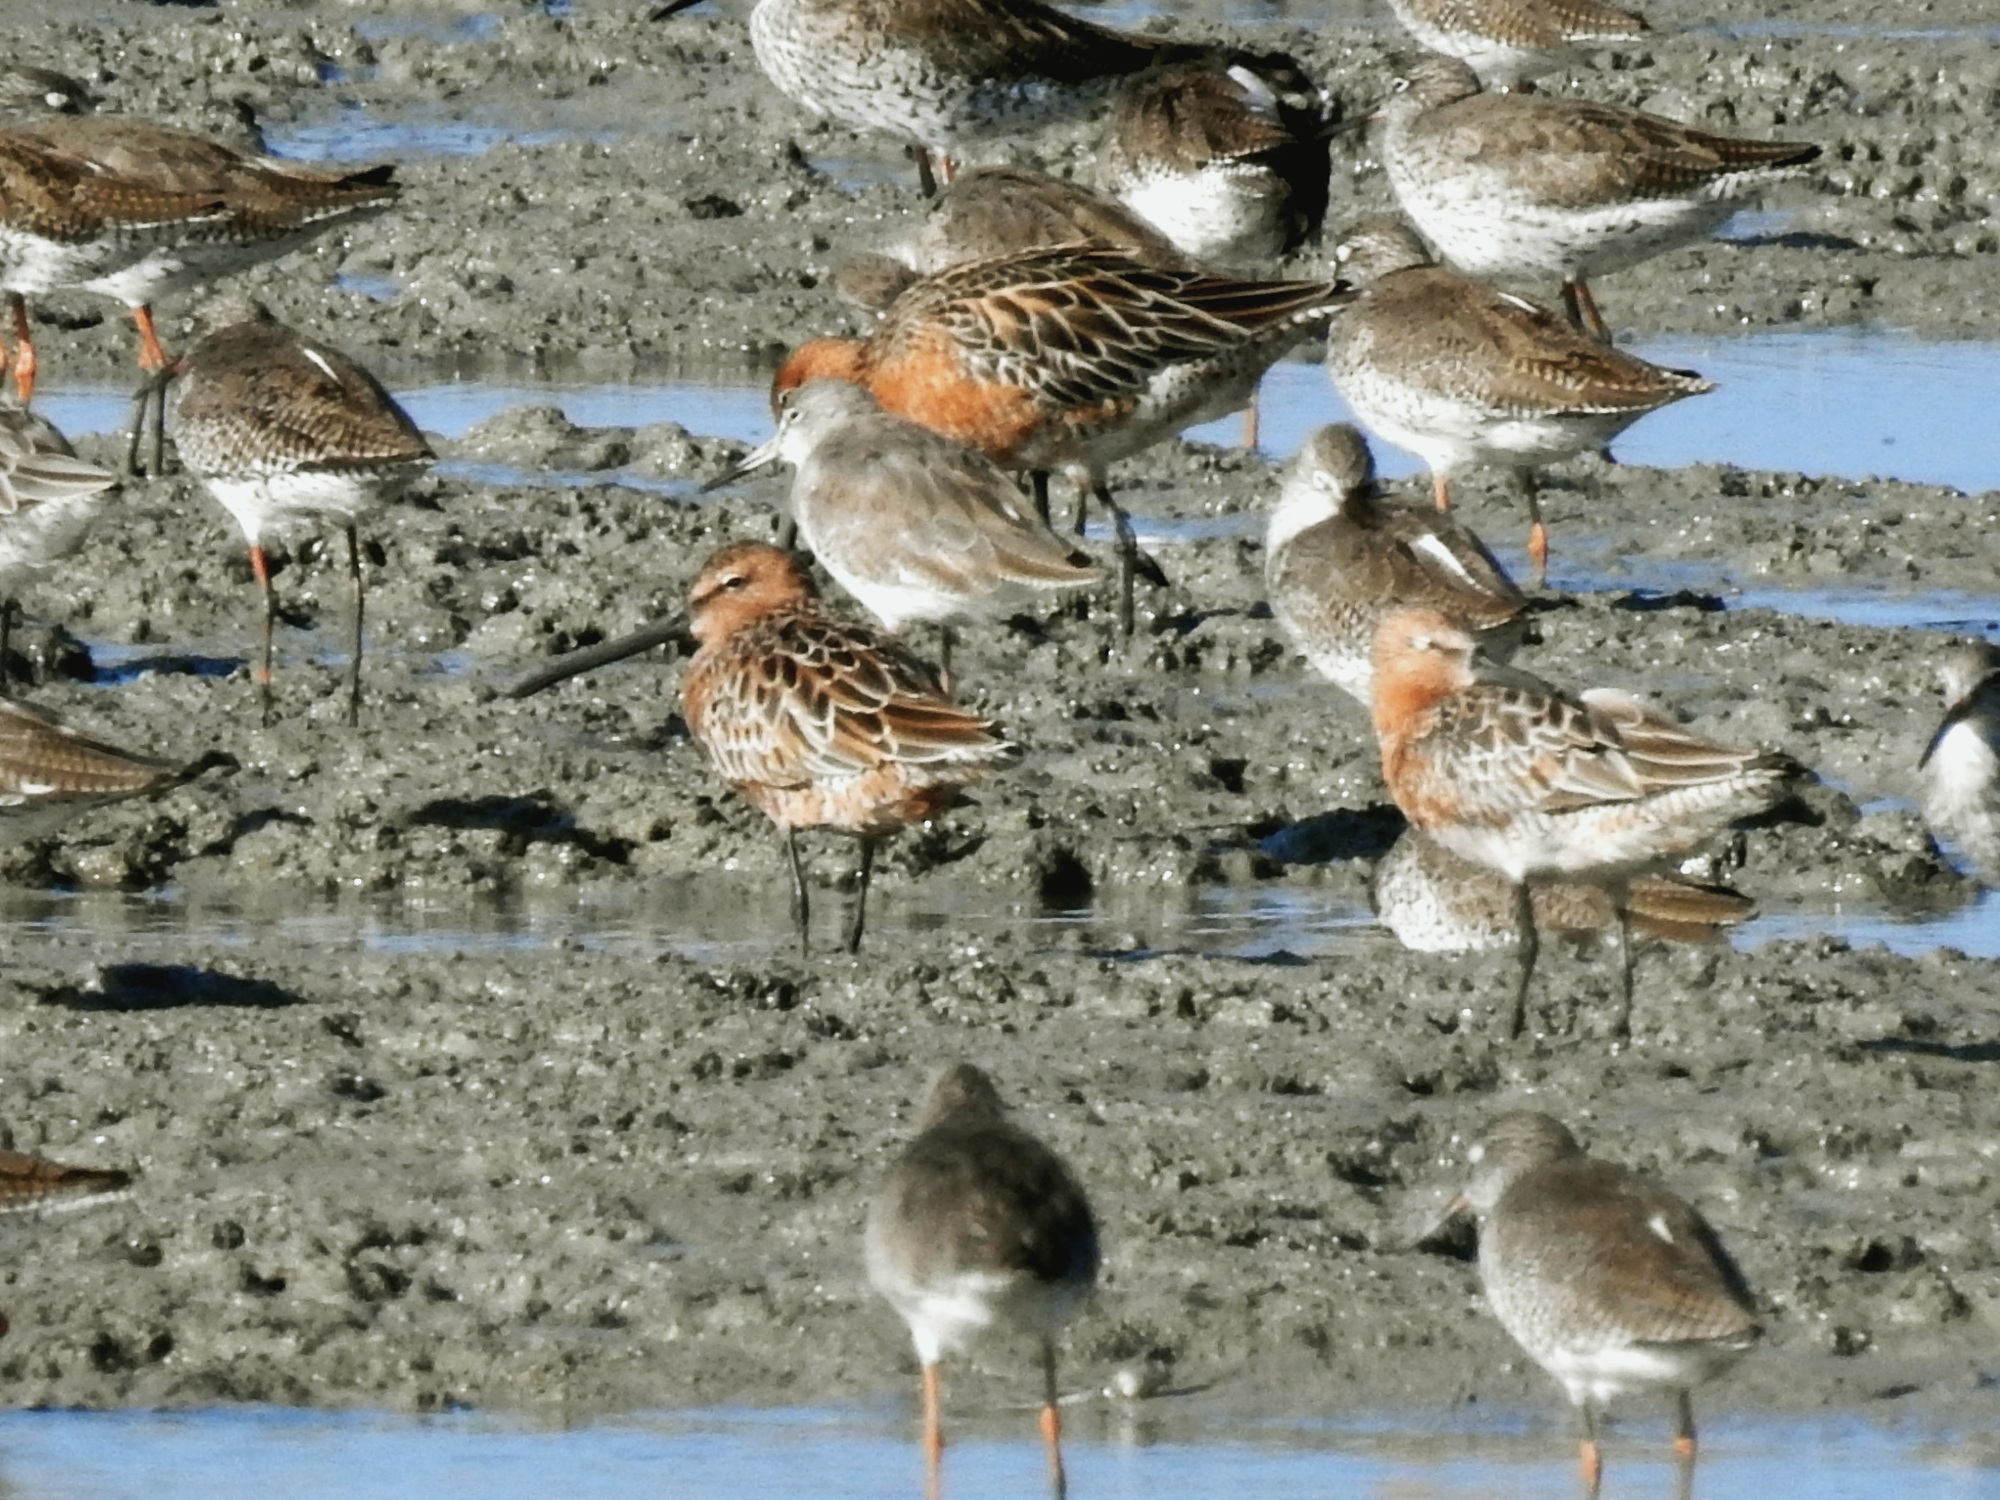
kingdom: Animalia
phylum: Chordata
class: Aves
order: Charadriiformes
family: Scolopacidae
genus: Limnodromus
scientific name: Limnodromus semipalmatus
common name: Asian dowitcher
